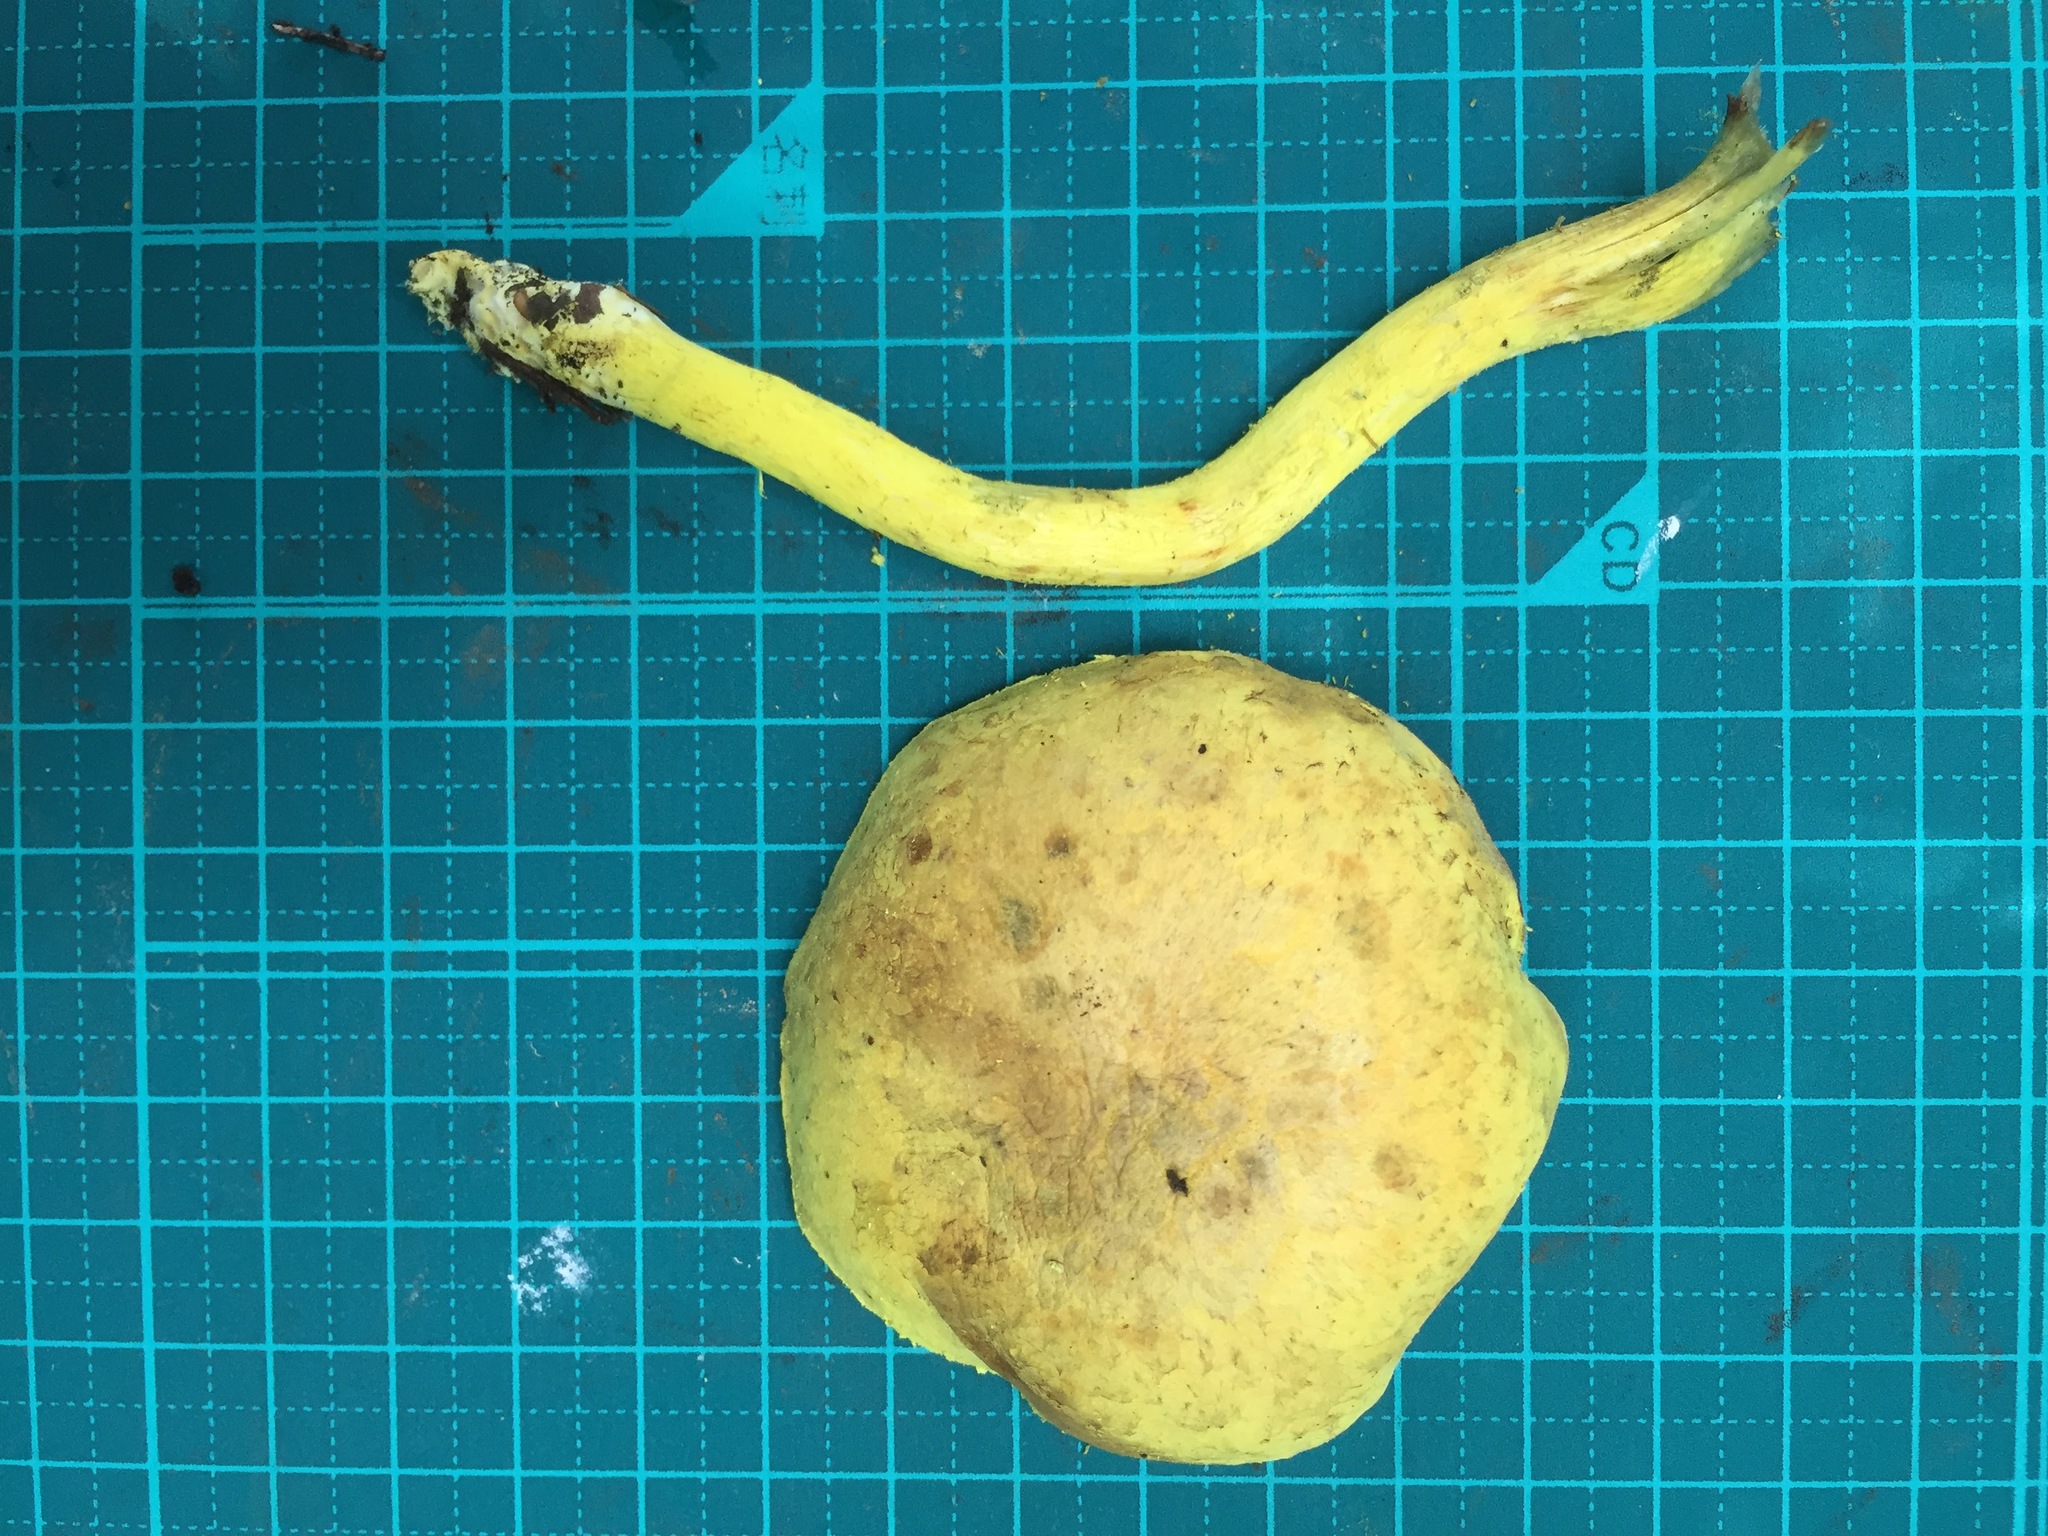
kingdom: Fungi
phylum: Basidiomycota
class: Agaricomycetes
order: Boletales
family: Boletaceae
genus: Pulveroboletus
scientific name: Pulveroboletus ravenelii
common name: Powdery sulfur bolete
